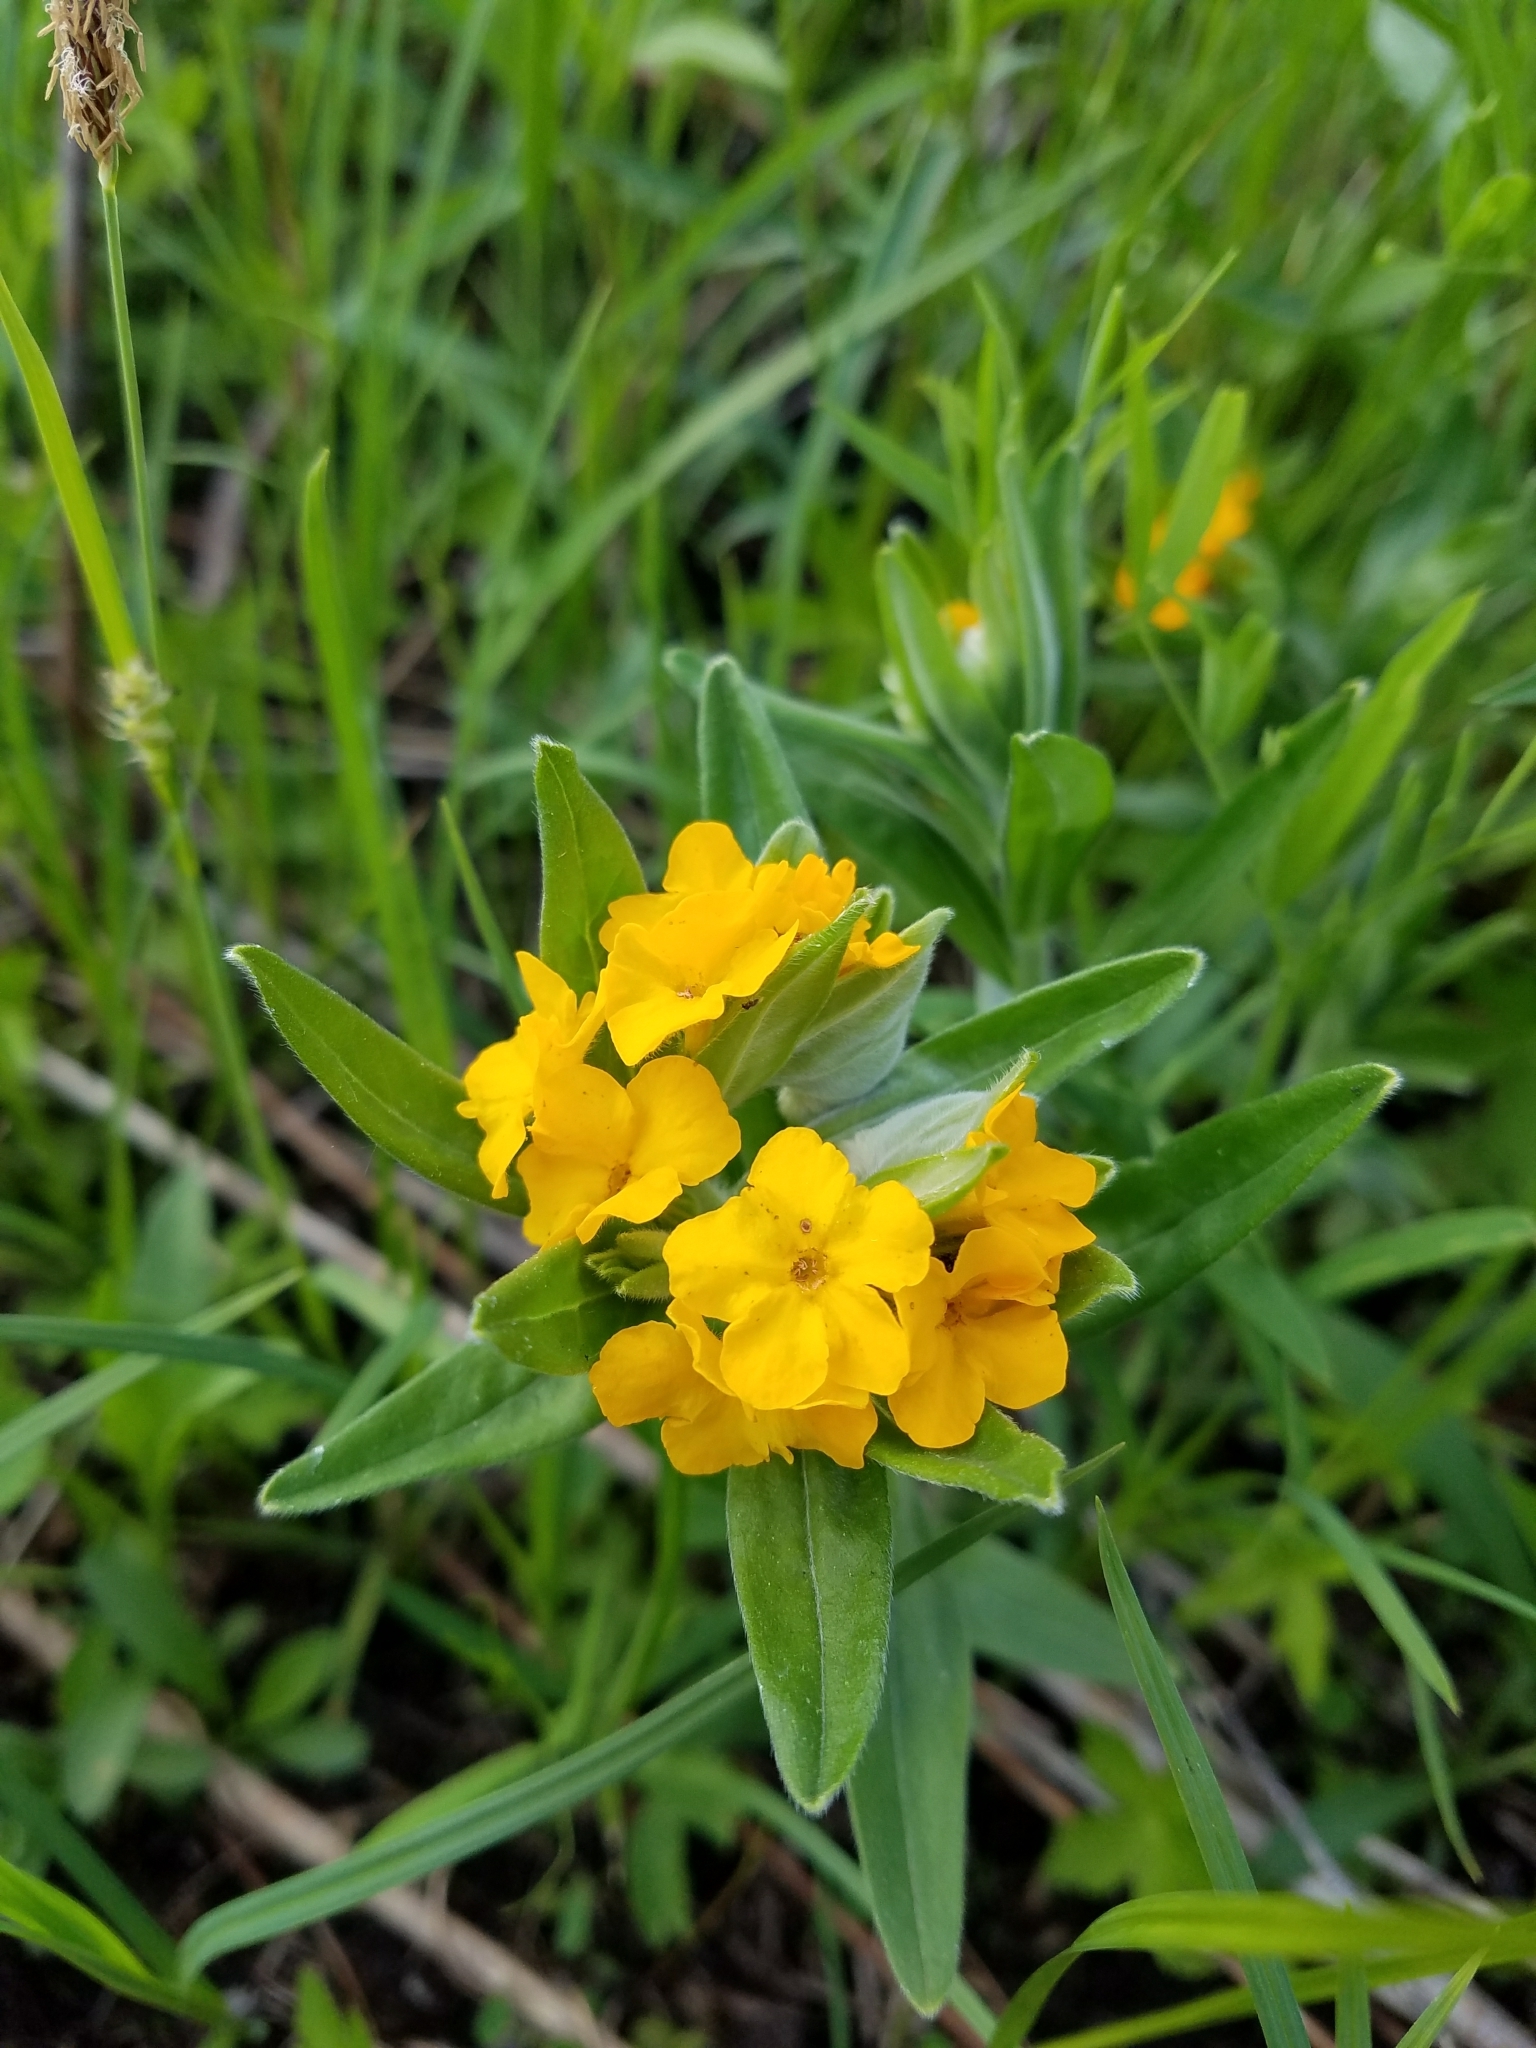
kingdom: Plantae
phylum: Tracheophyta
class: Magnoliopsida
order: Boraginales
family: Boraginaceae
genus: Lithospermum
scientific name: Lithospermum canescens
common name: Hoary puccoon
